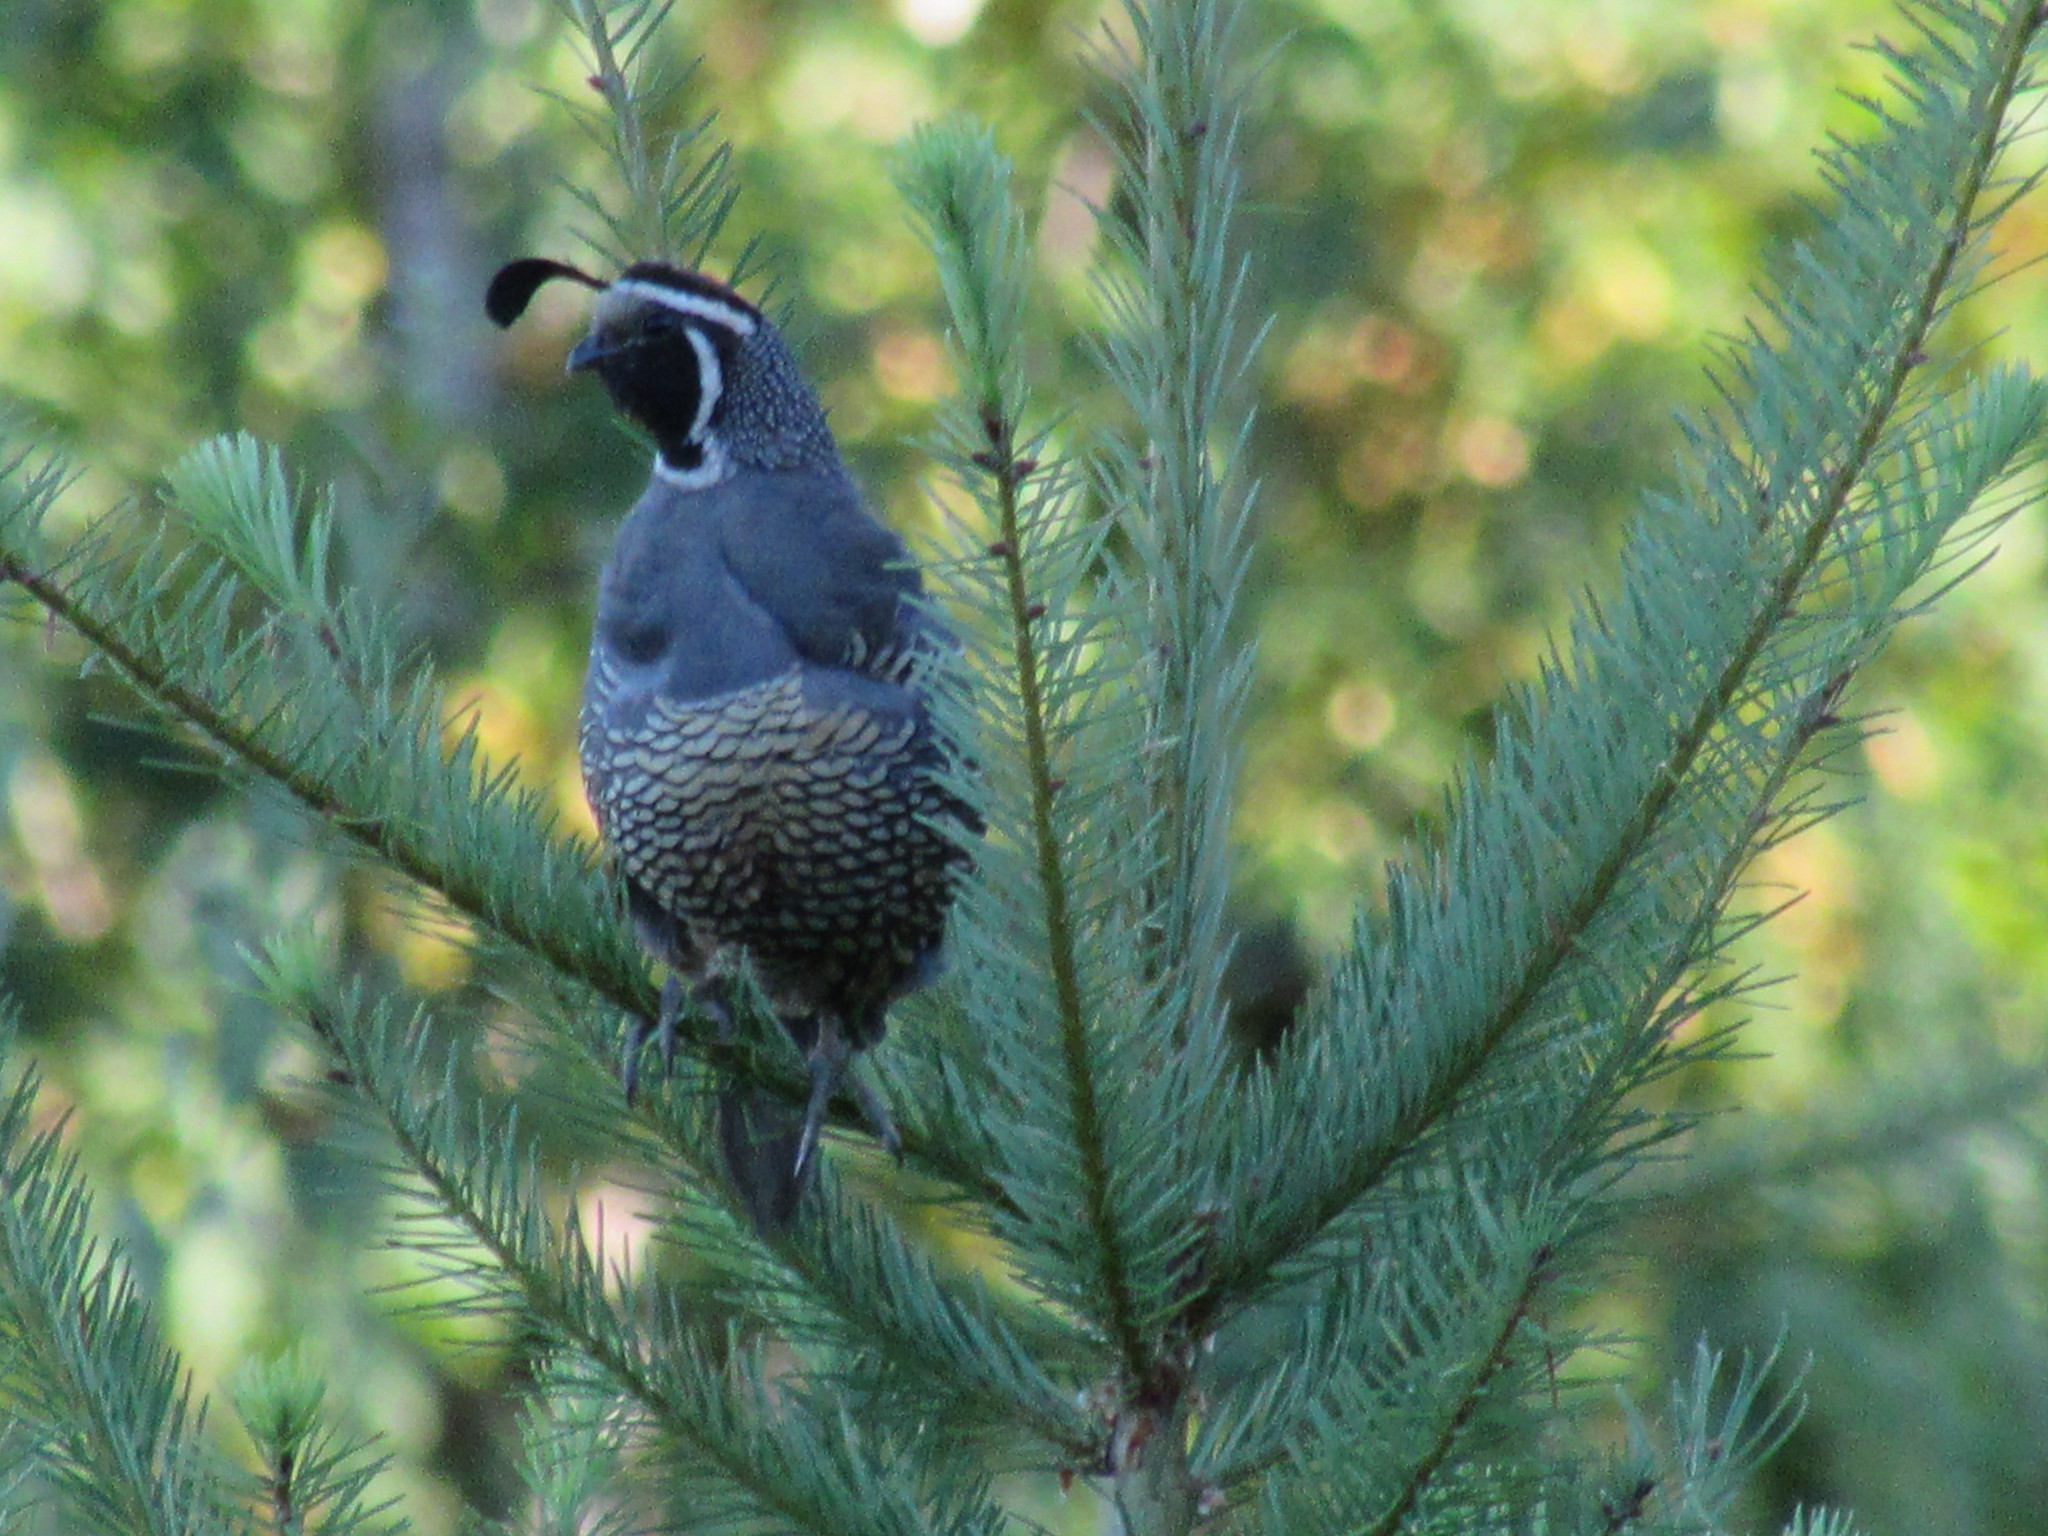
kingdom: Animalia
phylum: Chordata
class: Aves
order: Galliformes
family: Odontophoridae
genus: Callipepla
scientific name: Callipepla californica
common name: California quail
